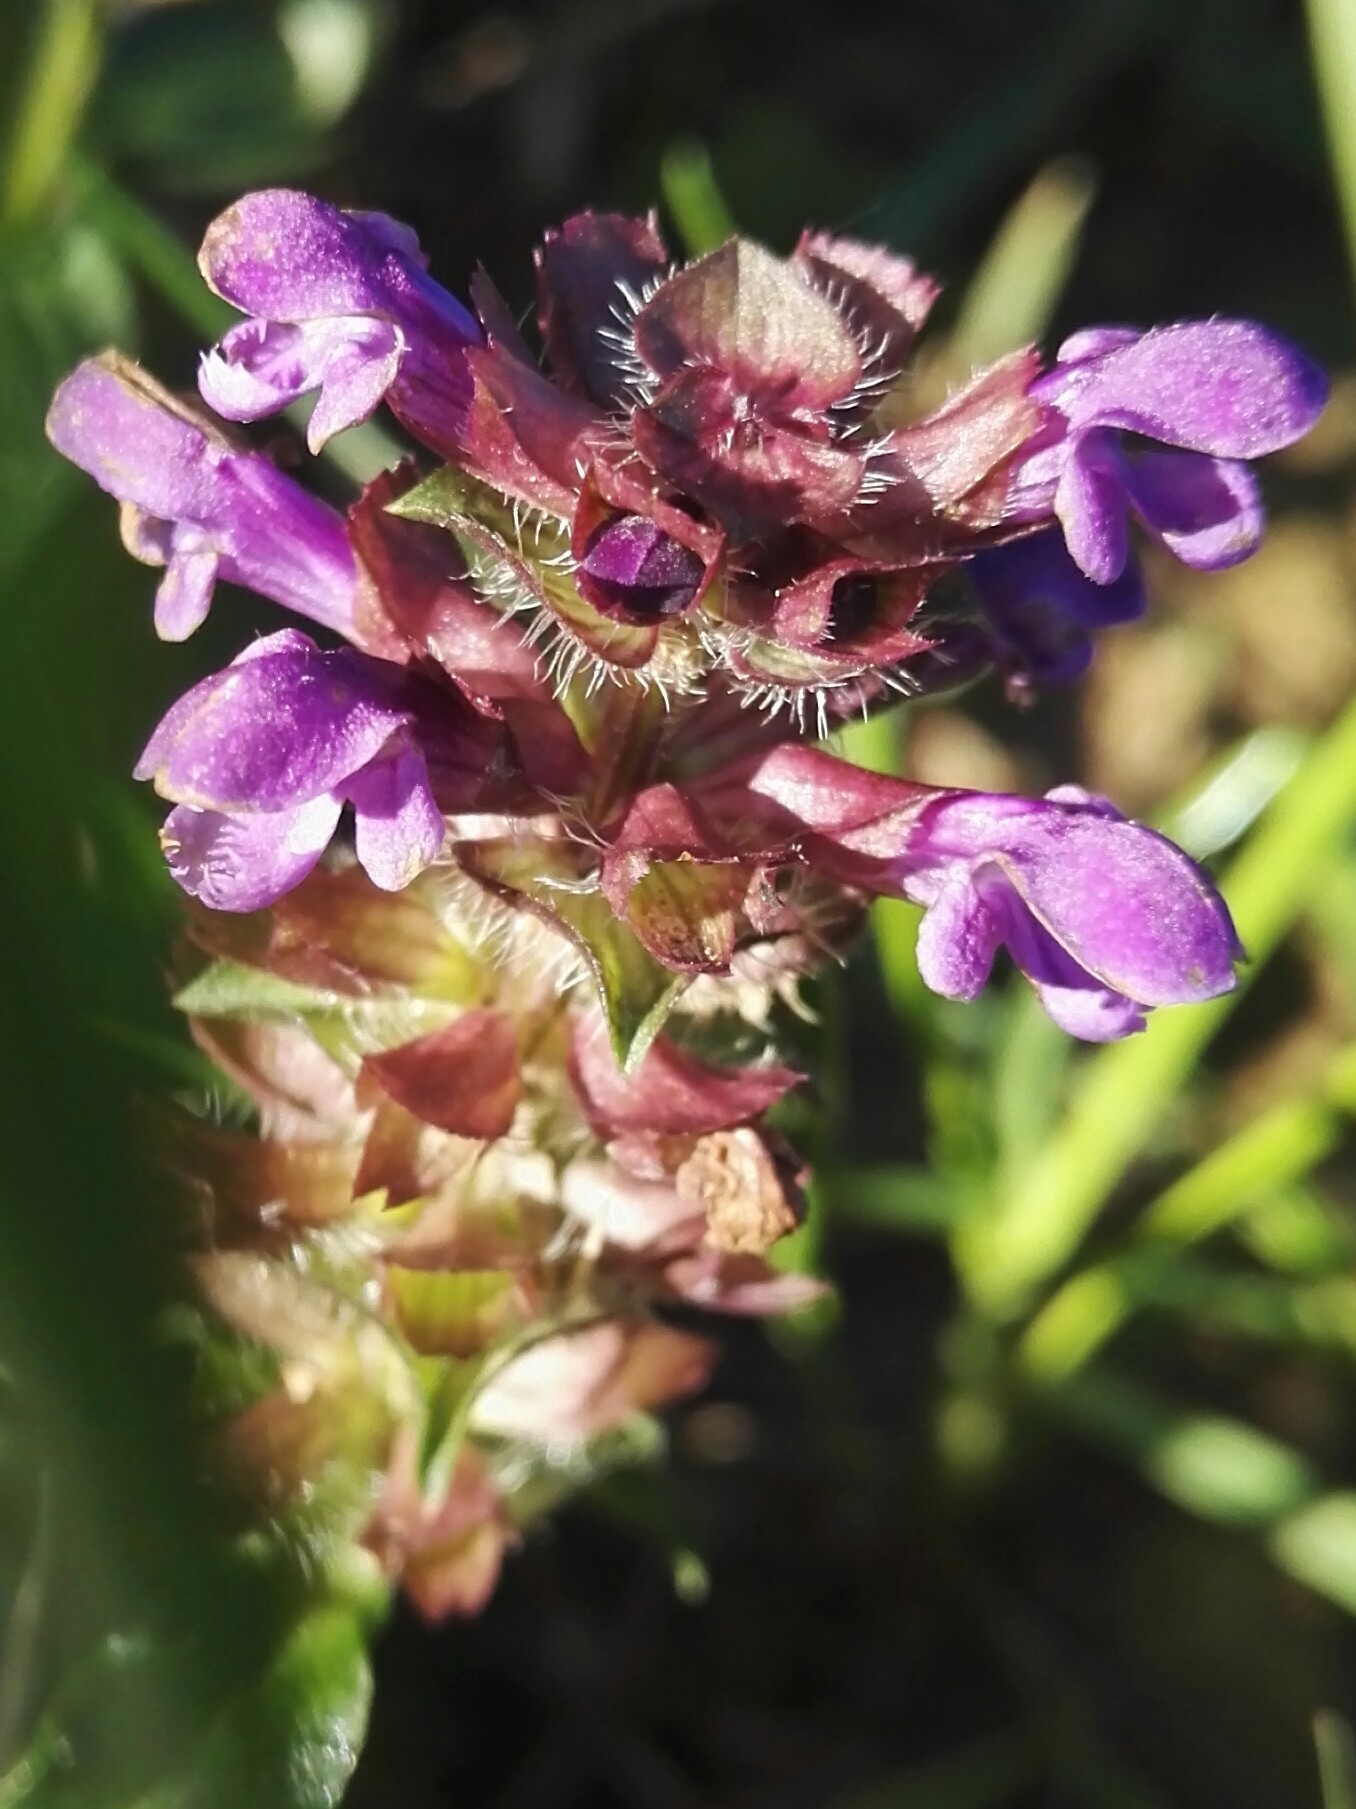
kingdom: Plantae
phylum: Tracheophyta
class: Magnoliopsida
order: Lamiales
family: Lamiaceae
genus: Prunella
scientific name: Prunella vulgaris
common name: Heal-all
